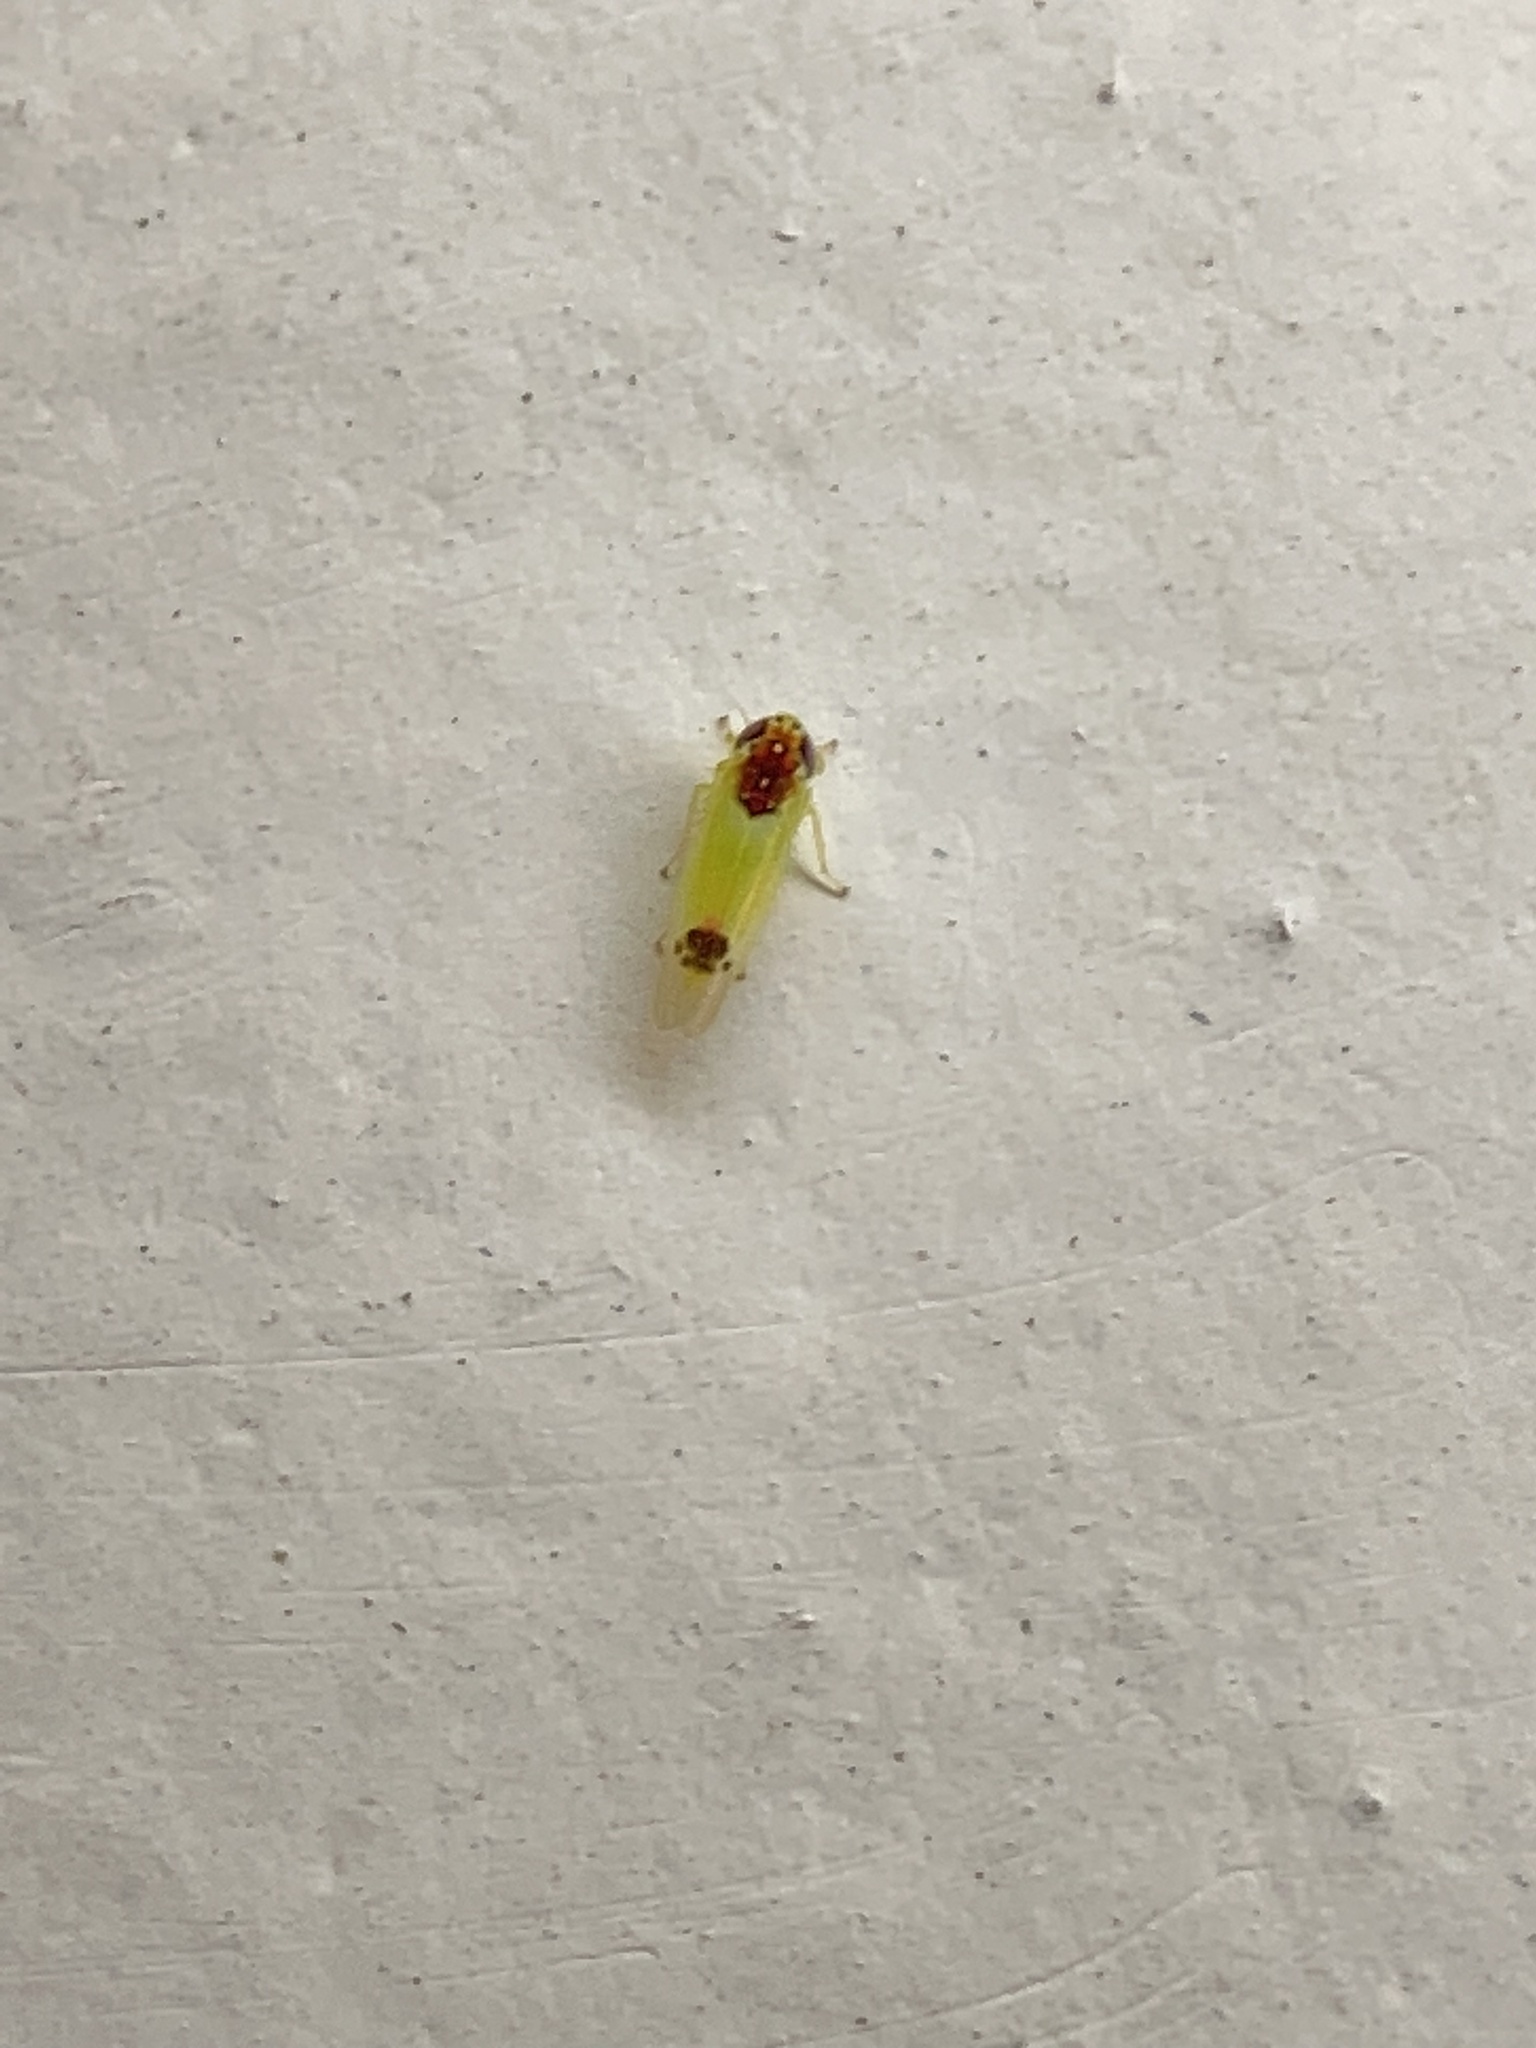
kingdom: Animalia
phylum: Arthropoda
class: Insecta
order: Hemiptera
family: Cicadellidae
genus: Amrasca
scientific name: Amrasca splendens
